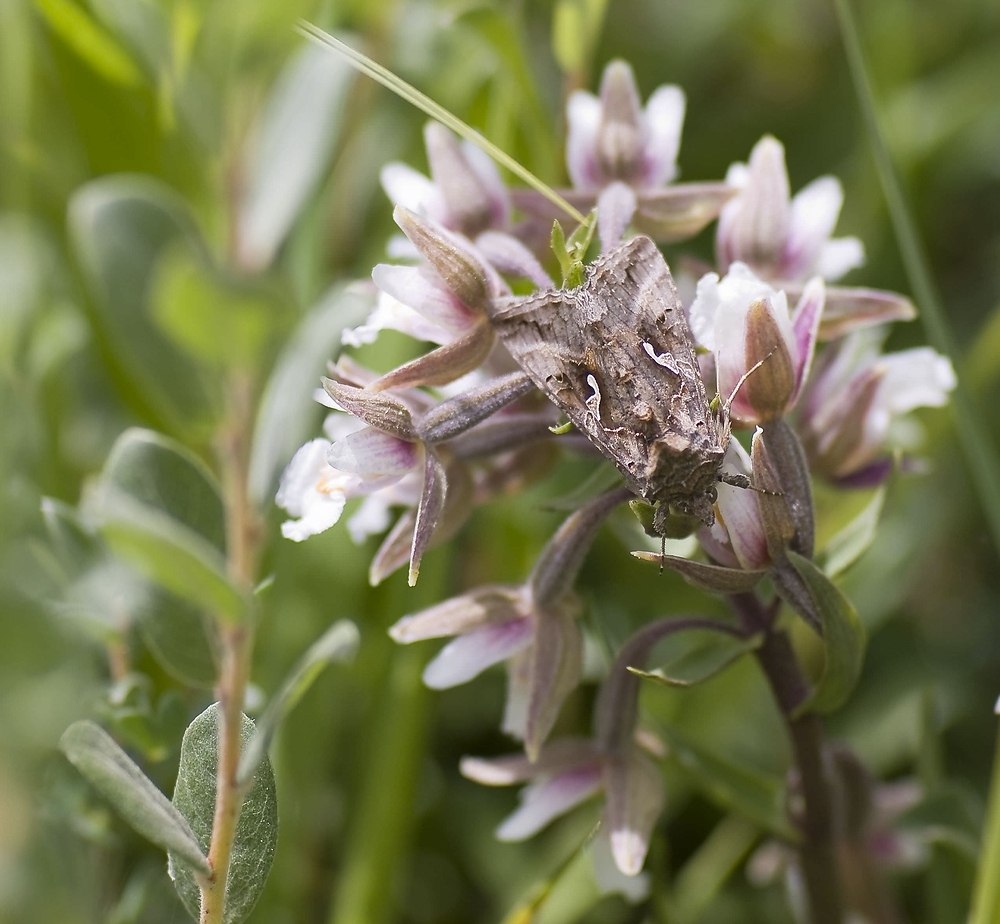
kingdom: Animalia
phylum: Arthropoda
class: Insecta
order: Lepidoptera
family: Noctuidae
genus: Autographa
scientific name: Autographa gamma
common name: Silver y
